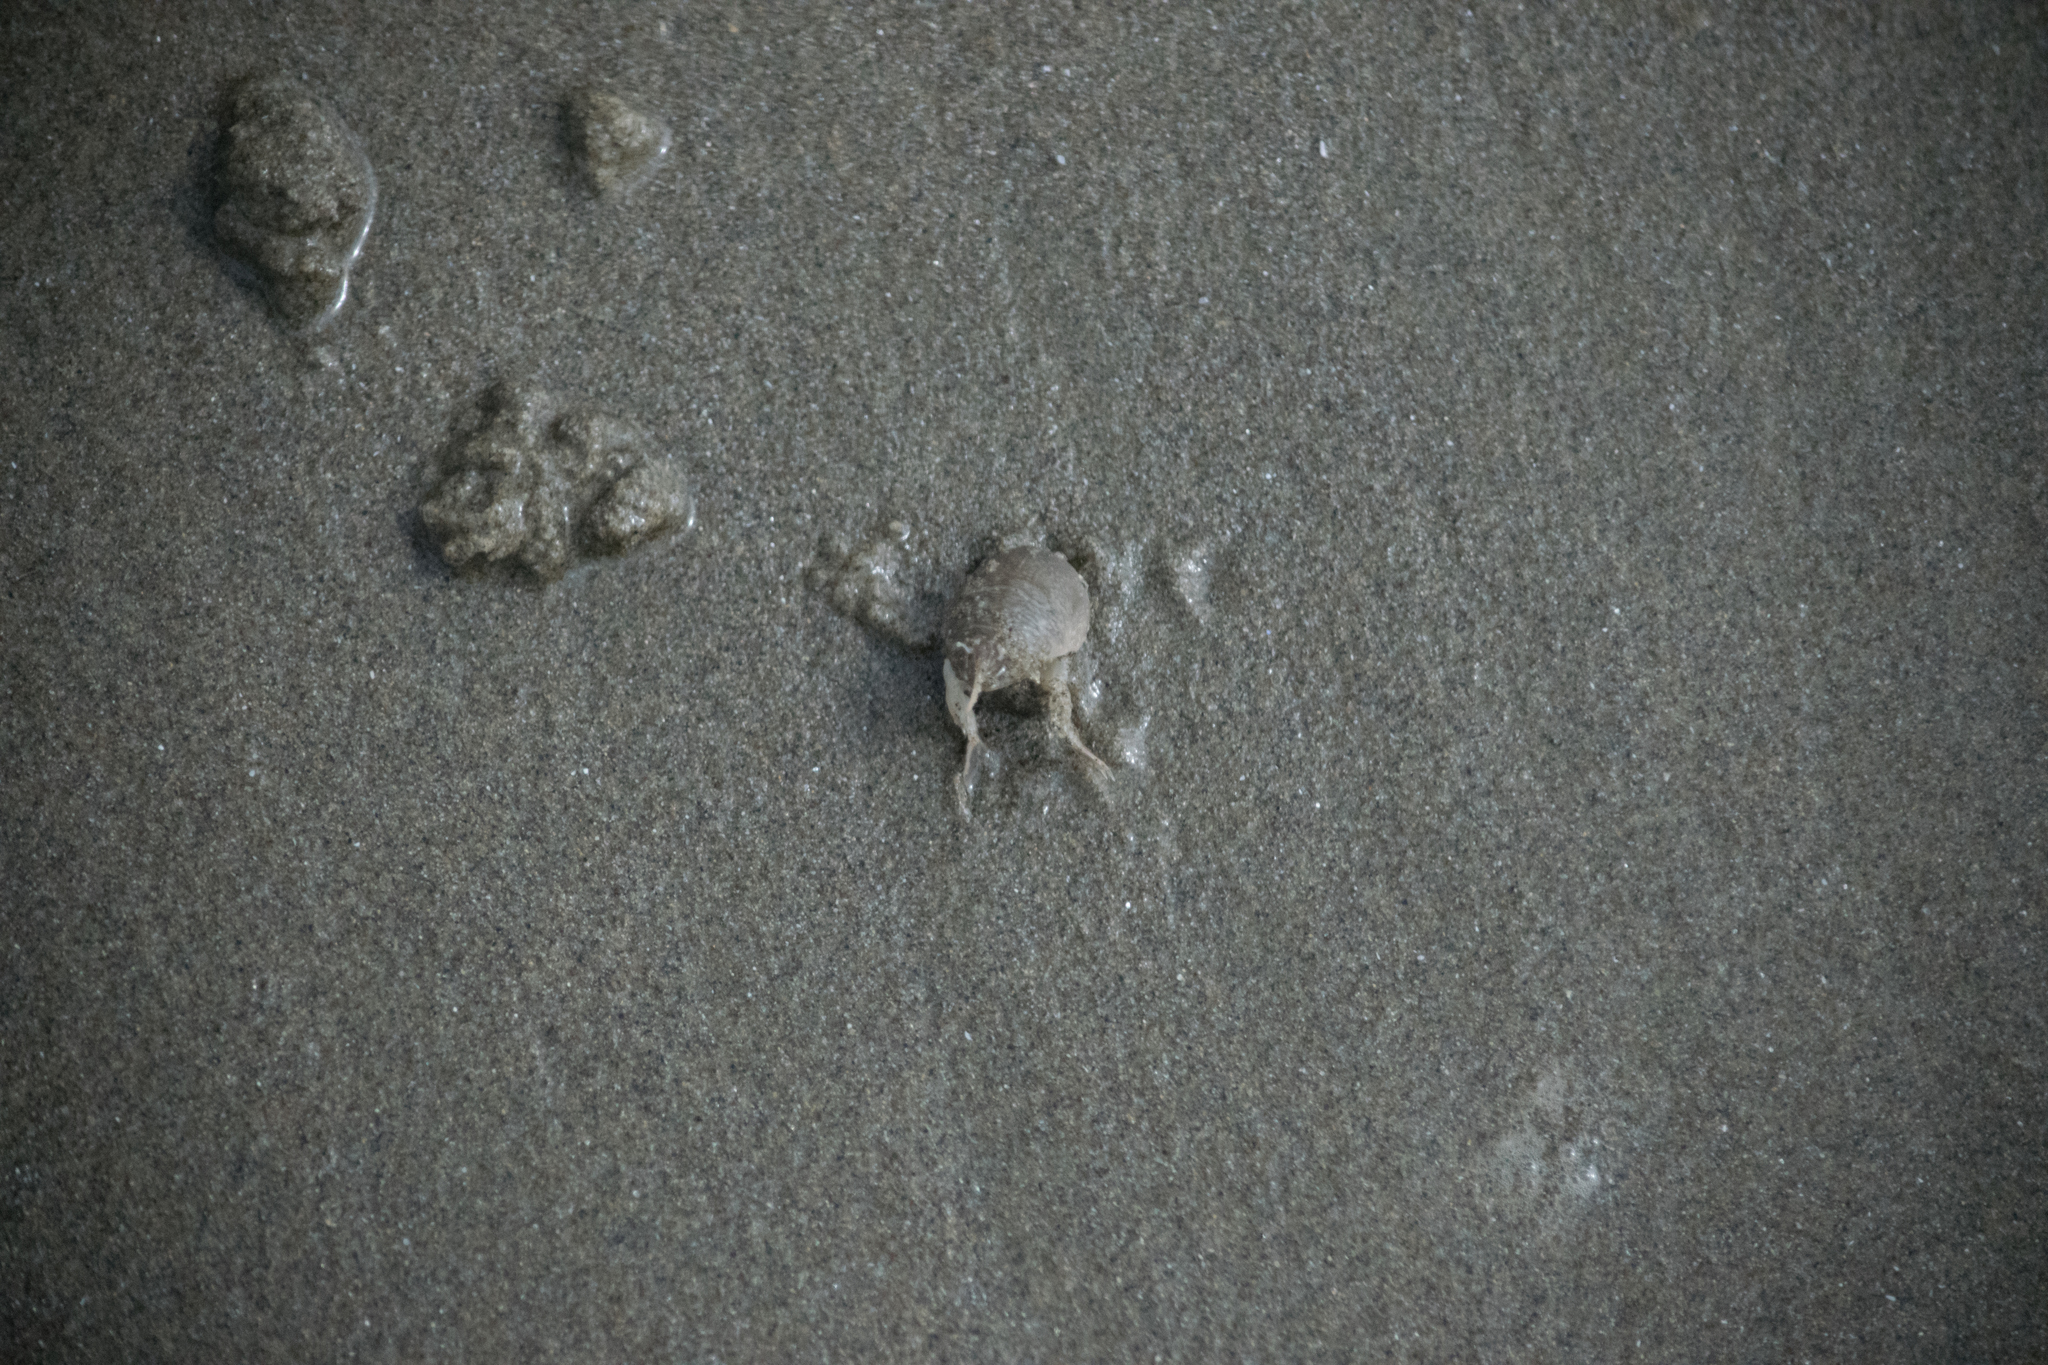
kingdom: Animalia
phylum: Arthropoda
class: Malacostraca
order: Decapoda
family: Hippidae
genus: Emerita
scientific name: Emerita analoga
